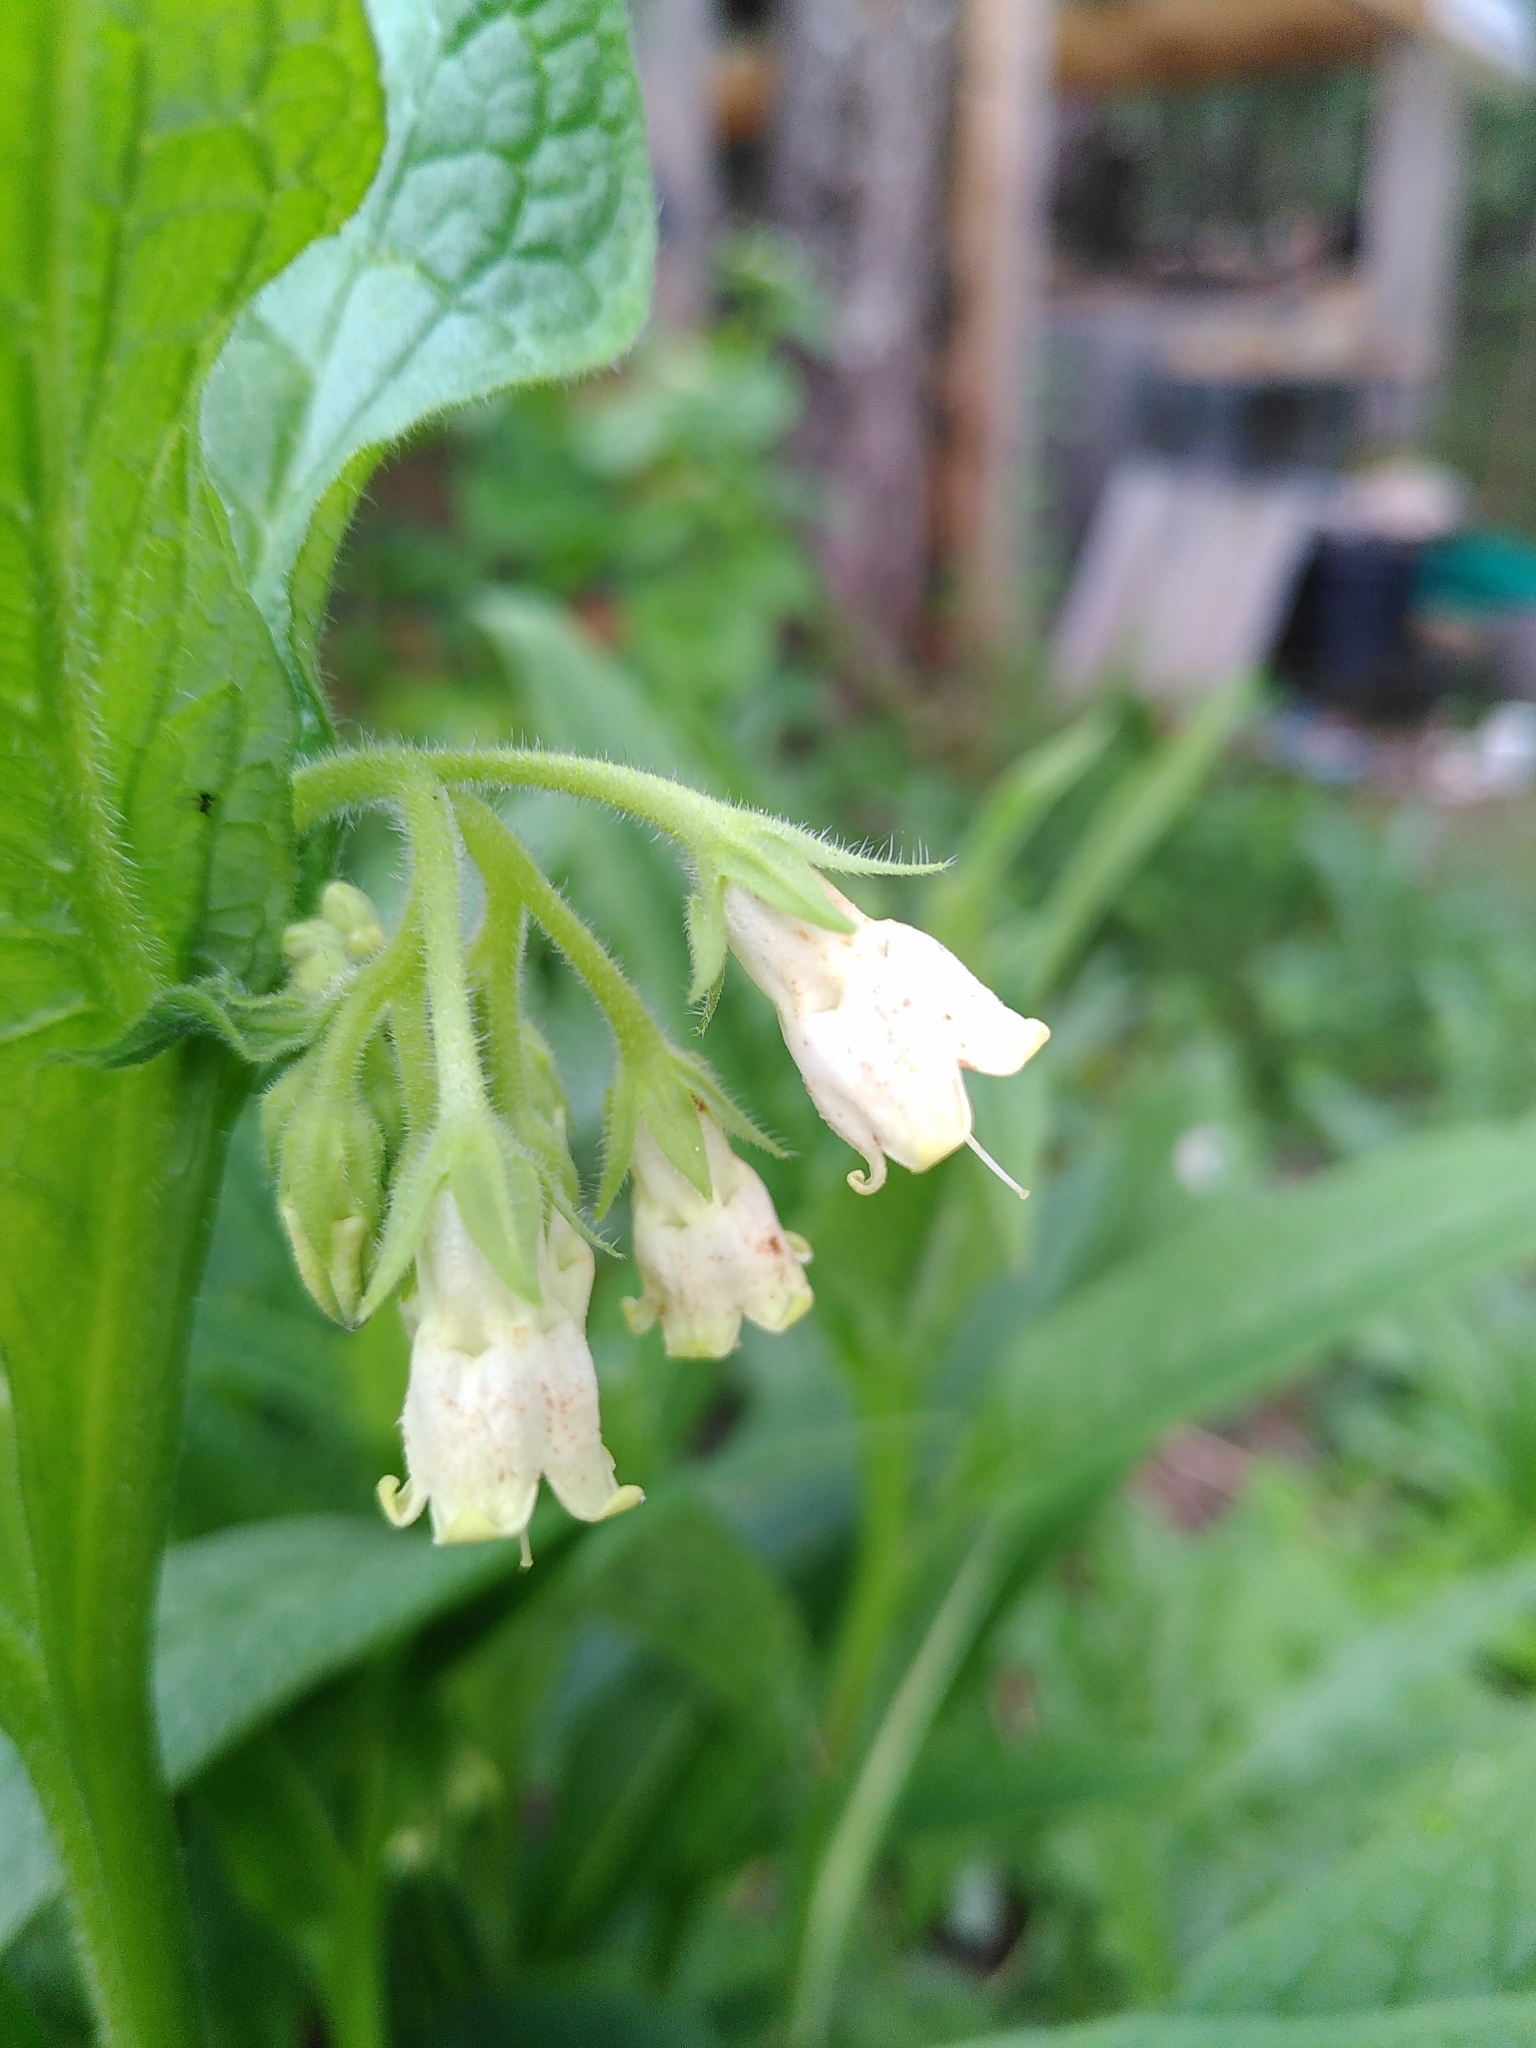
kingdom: Plantae
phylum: Tracheophyta
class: Magnoliopsida
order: Boraginales
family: Boraginaceae
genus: Symphytum
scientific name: Symphytum officinale
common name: Common comfrey
